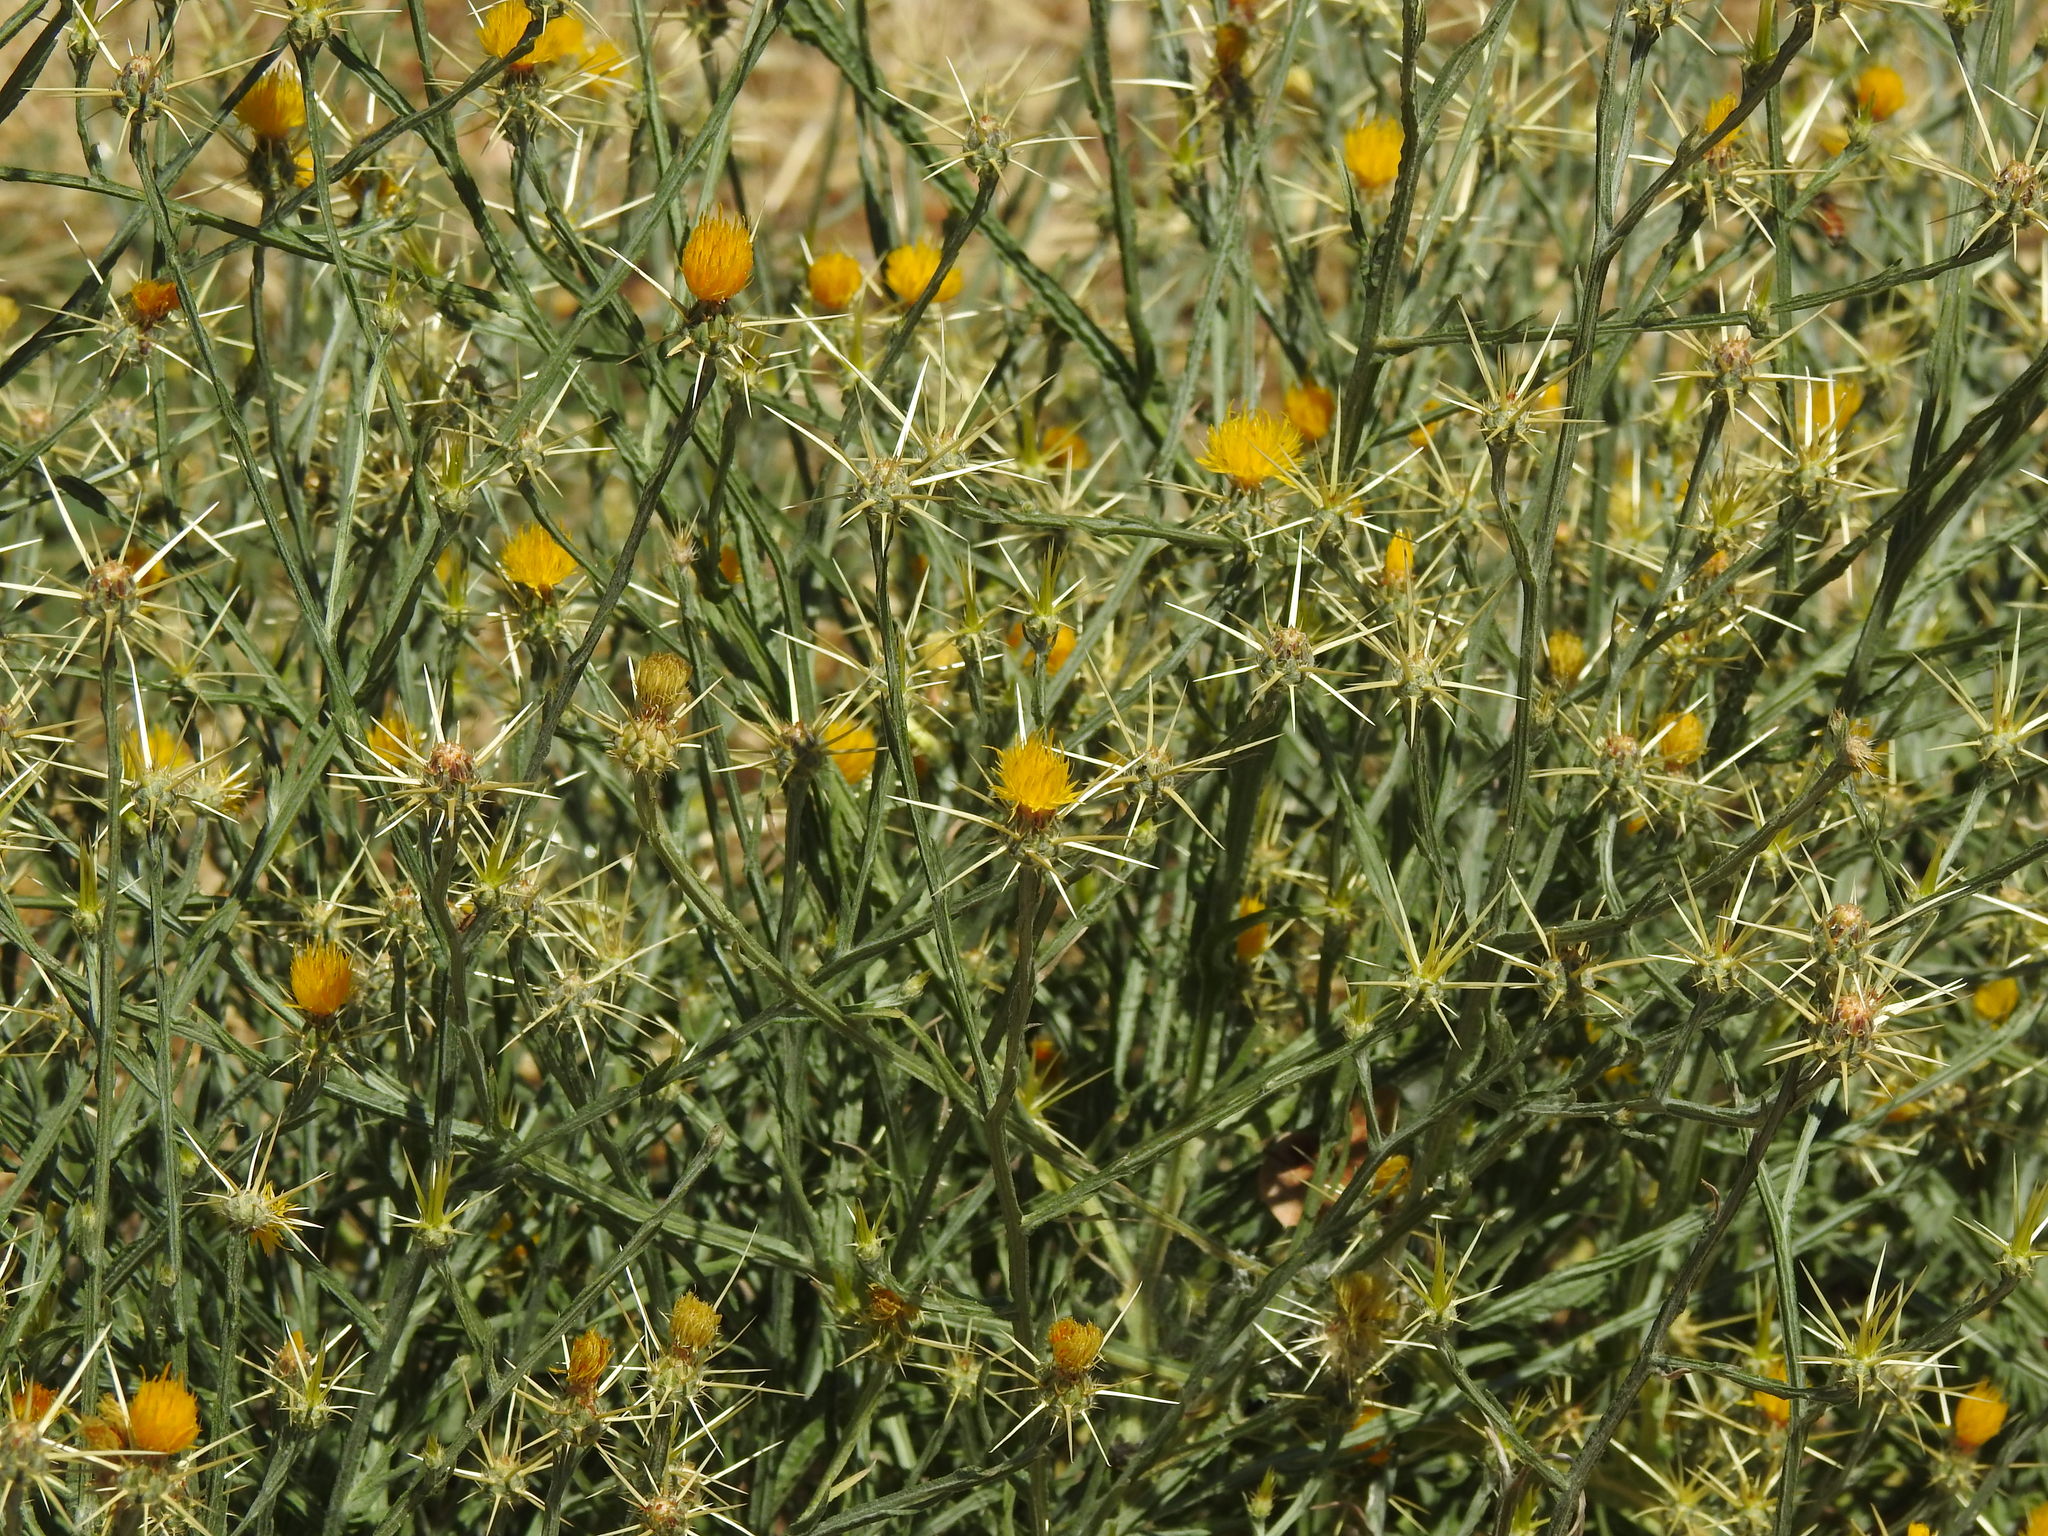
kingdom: Plantae
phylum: Tracheophyta
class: Magnoliopsida
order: Asterales
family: Asteraceae
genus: Centaurea
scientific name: Centaurea solstitialis
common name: Yellow star-thistle
